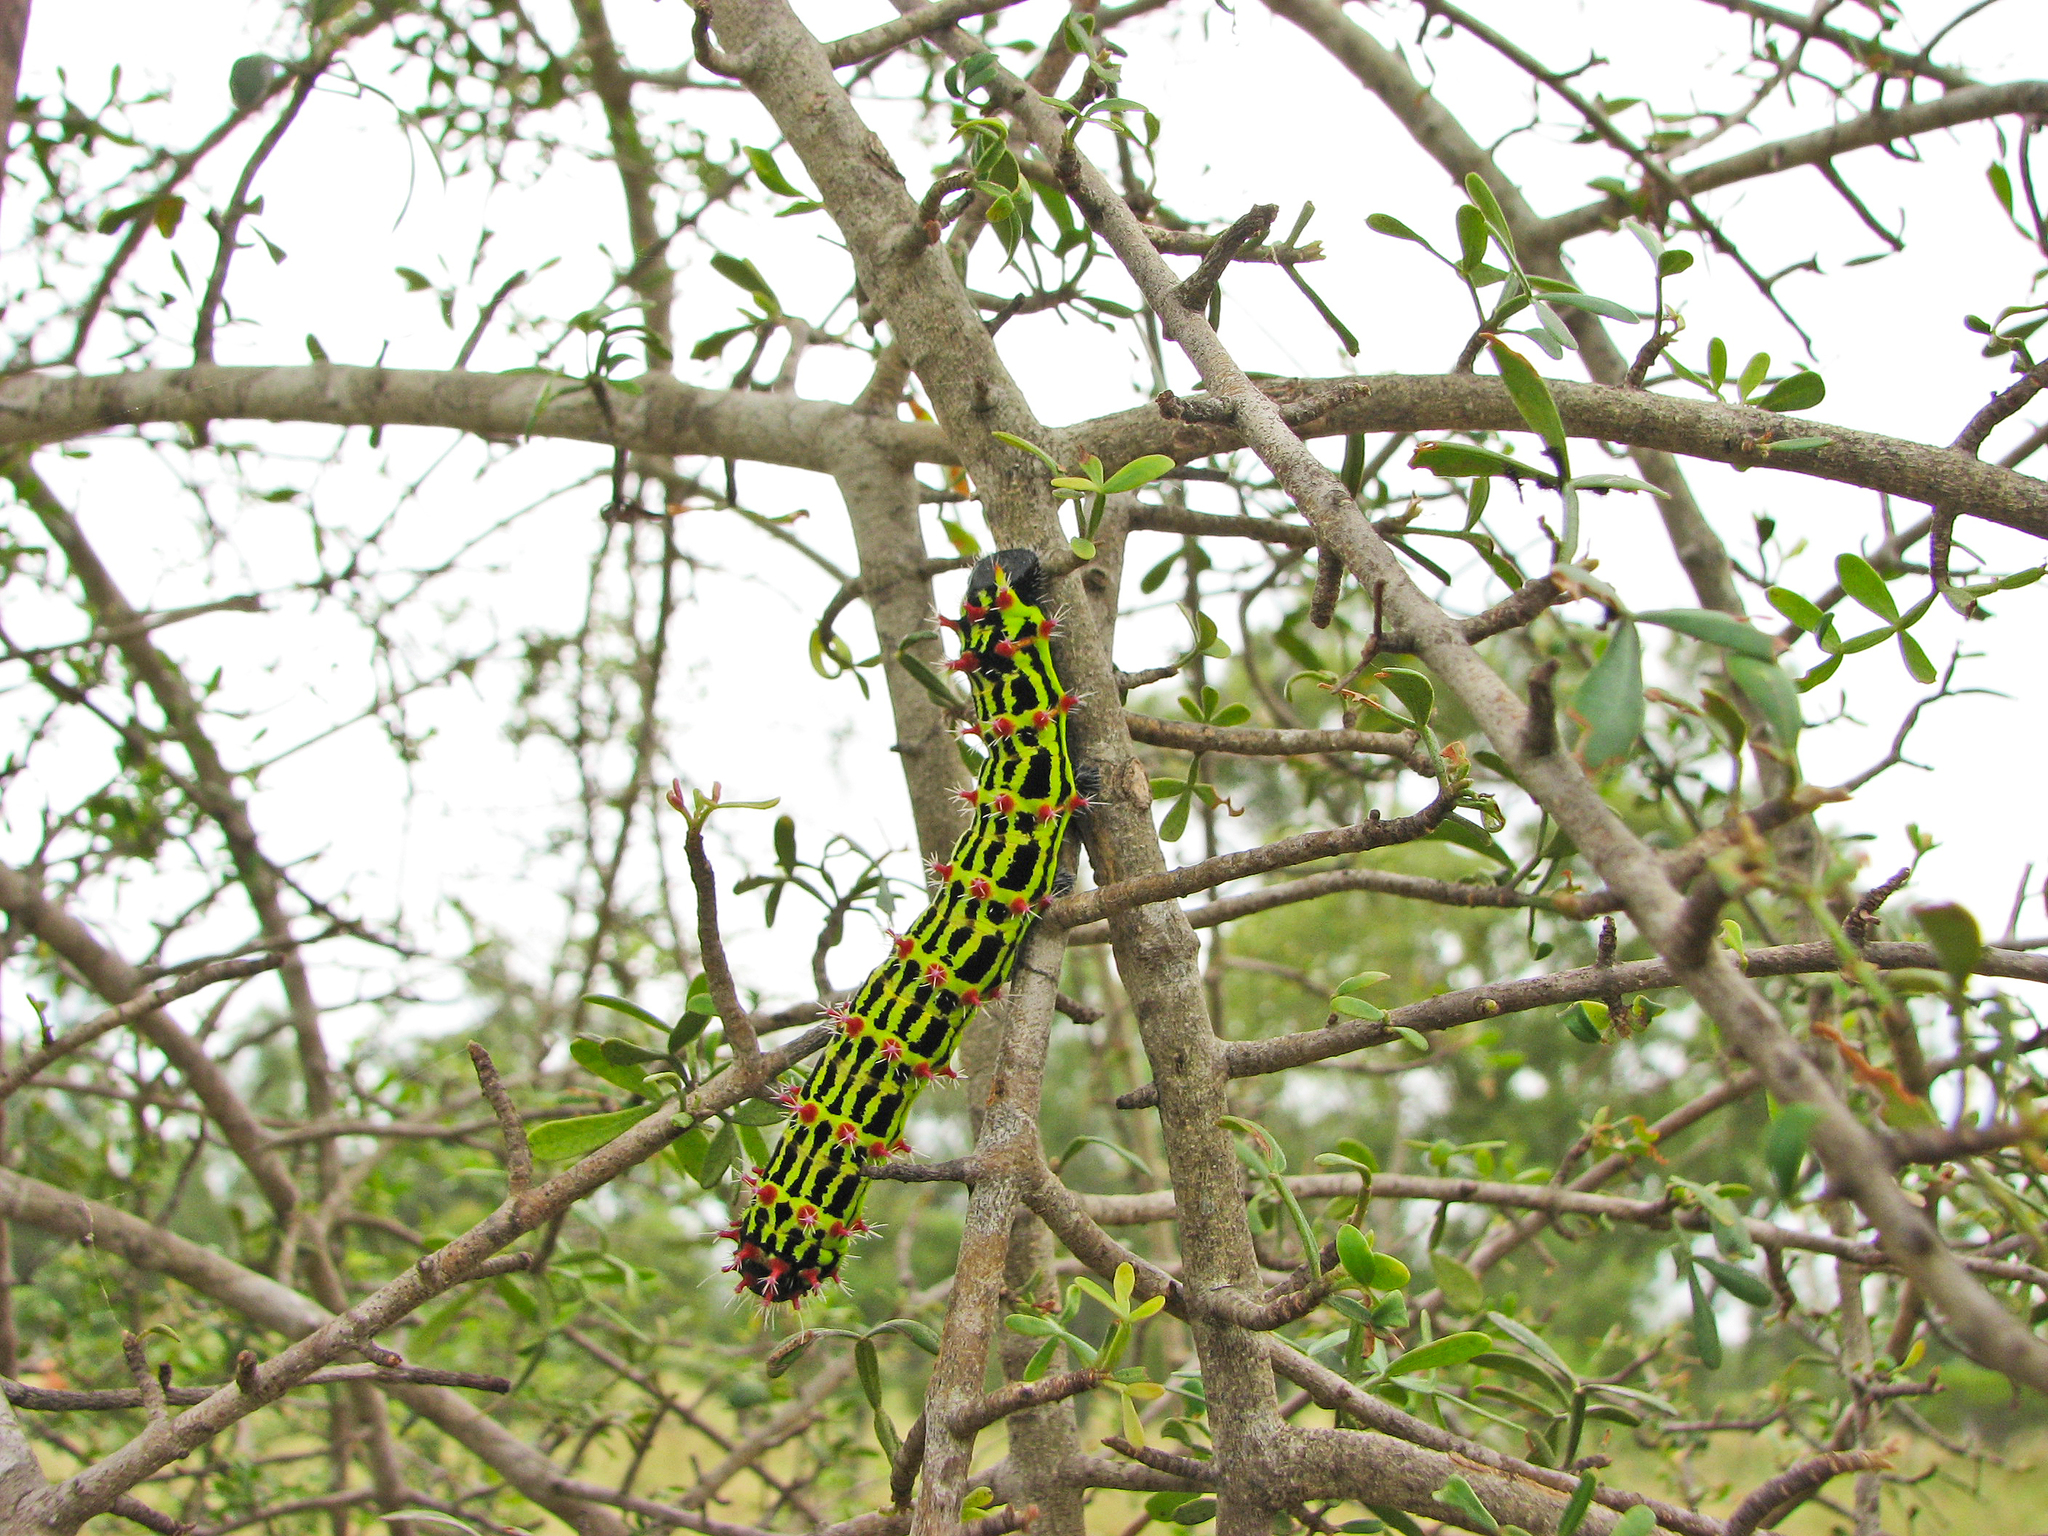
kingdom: Animalia
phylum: Arthropoda
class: Insecta
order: Lepidoptera
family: Saturniidae
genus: Opodiphthera
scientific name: Opodiphthera astrophela
